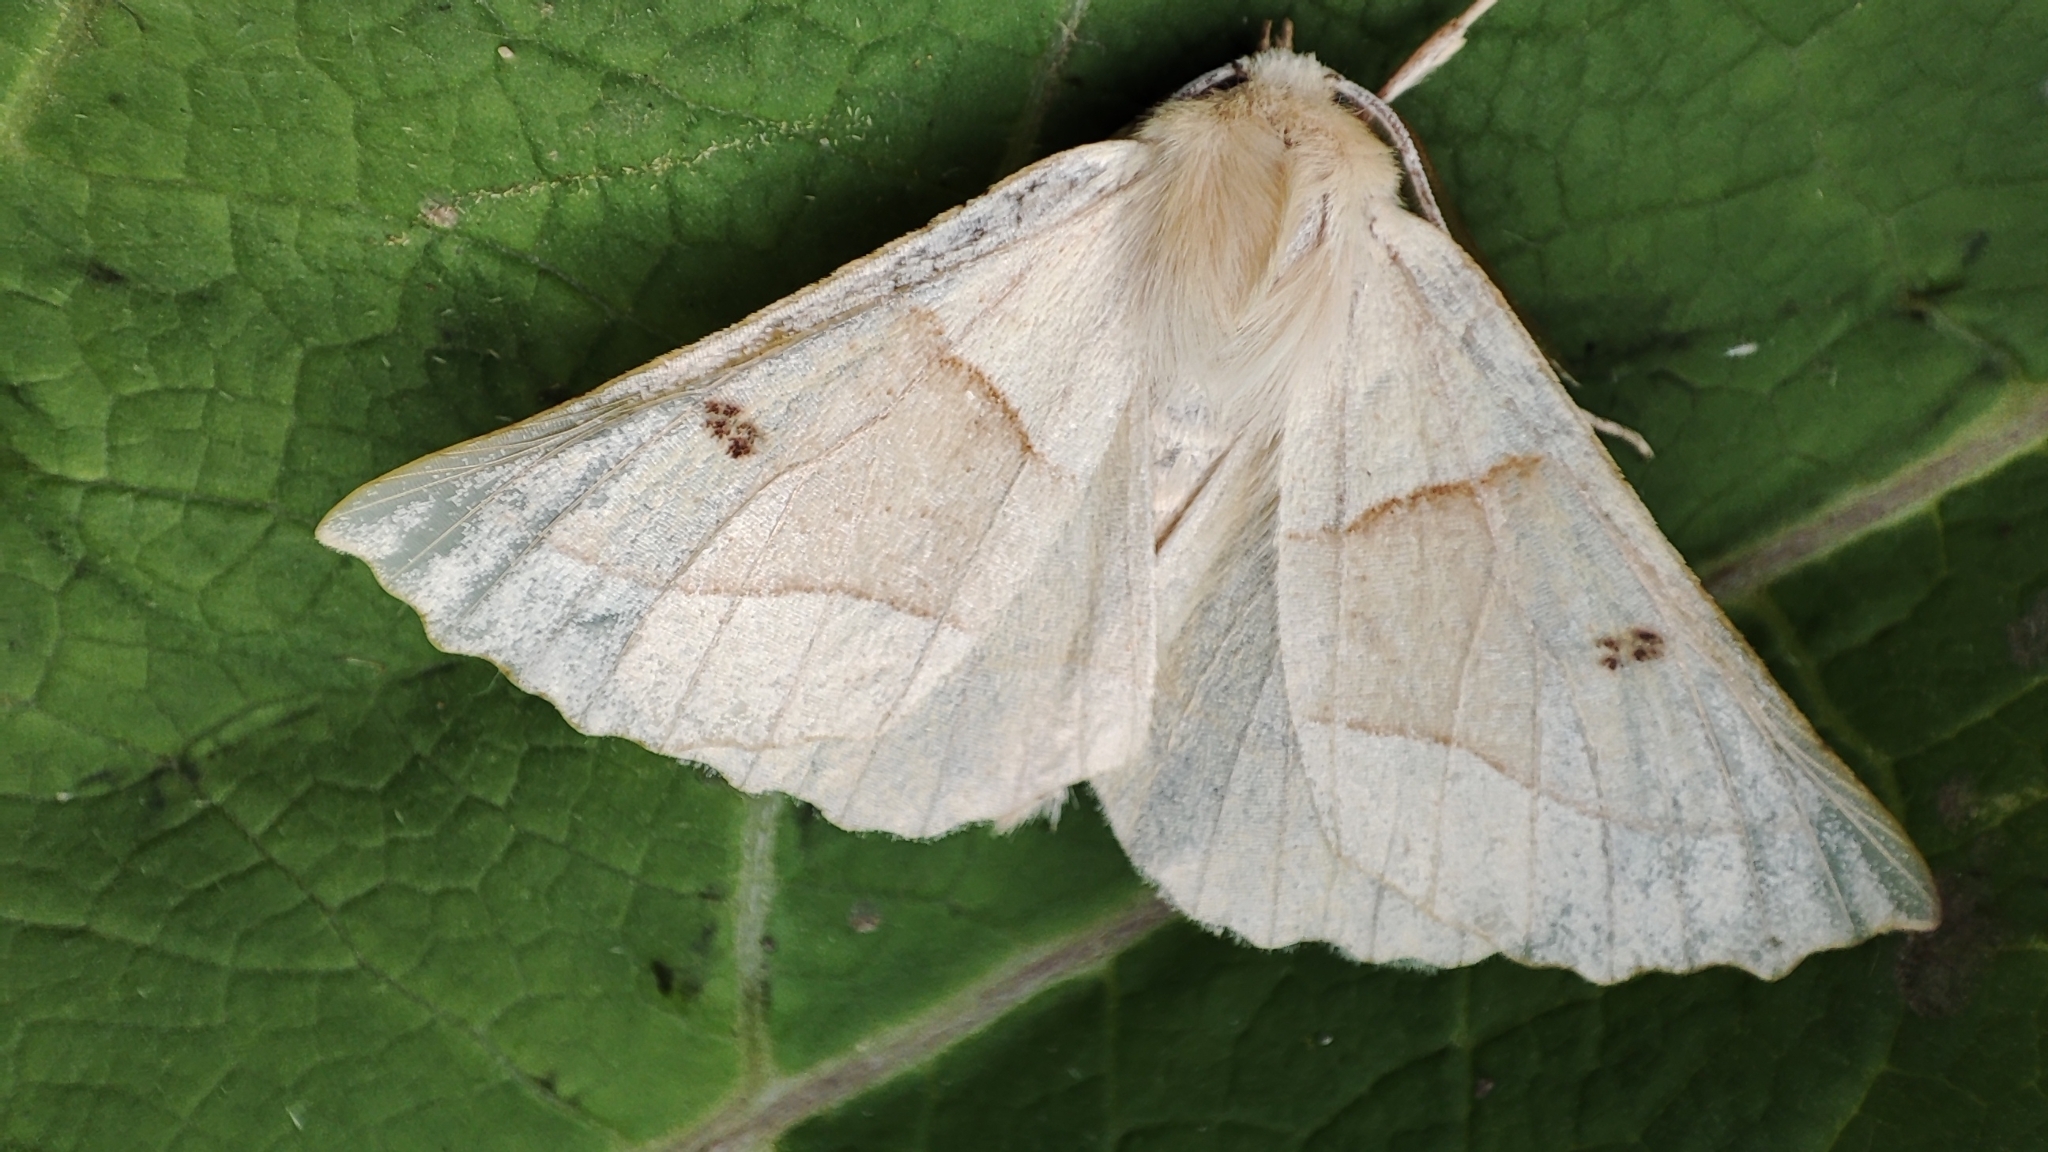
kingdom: Animalia
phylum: Arthropoda
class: Insecta
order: Lepidoptera
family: Geometridae
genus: Crocallis
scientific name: Crocallis elinguaria
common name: Scalloped oak
